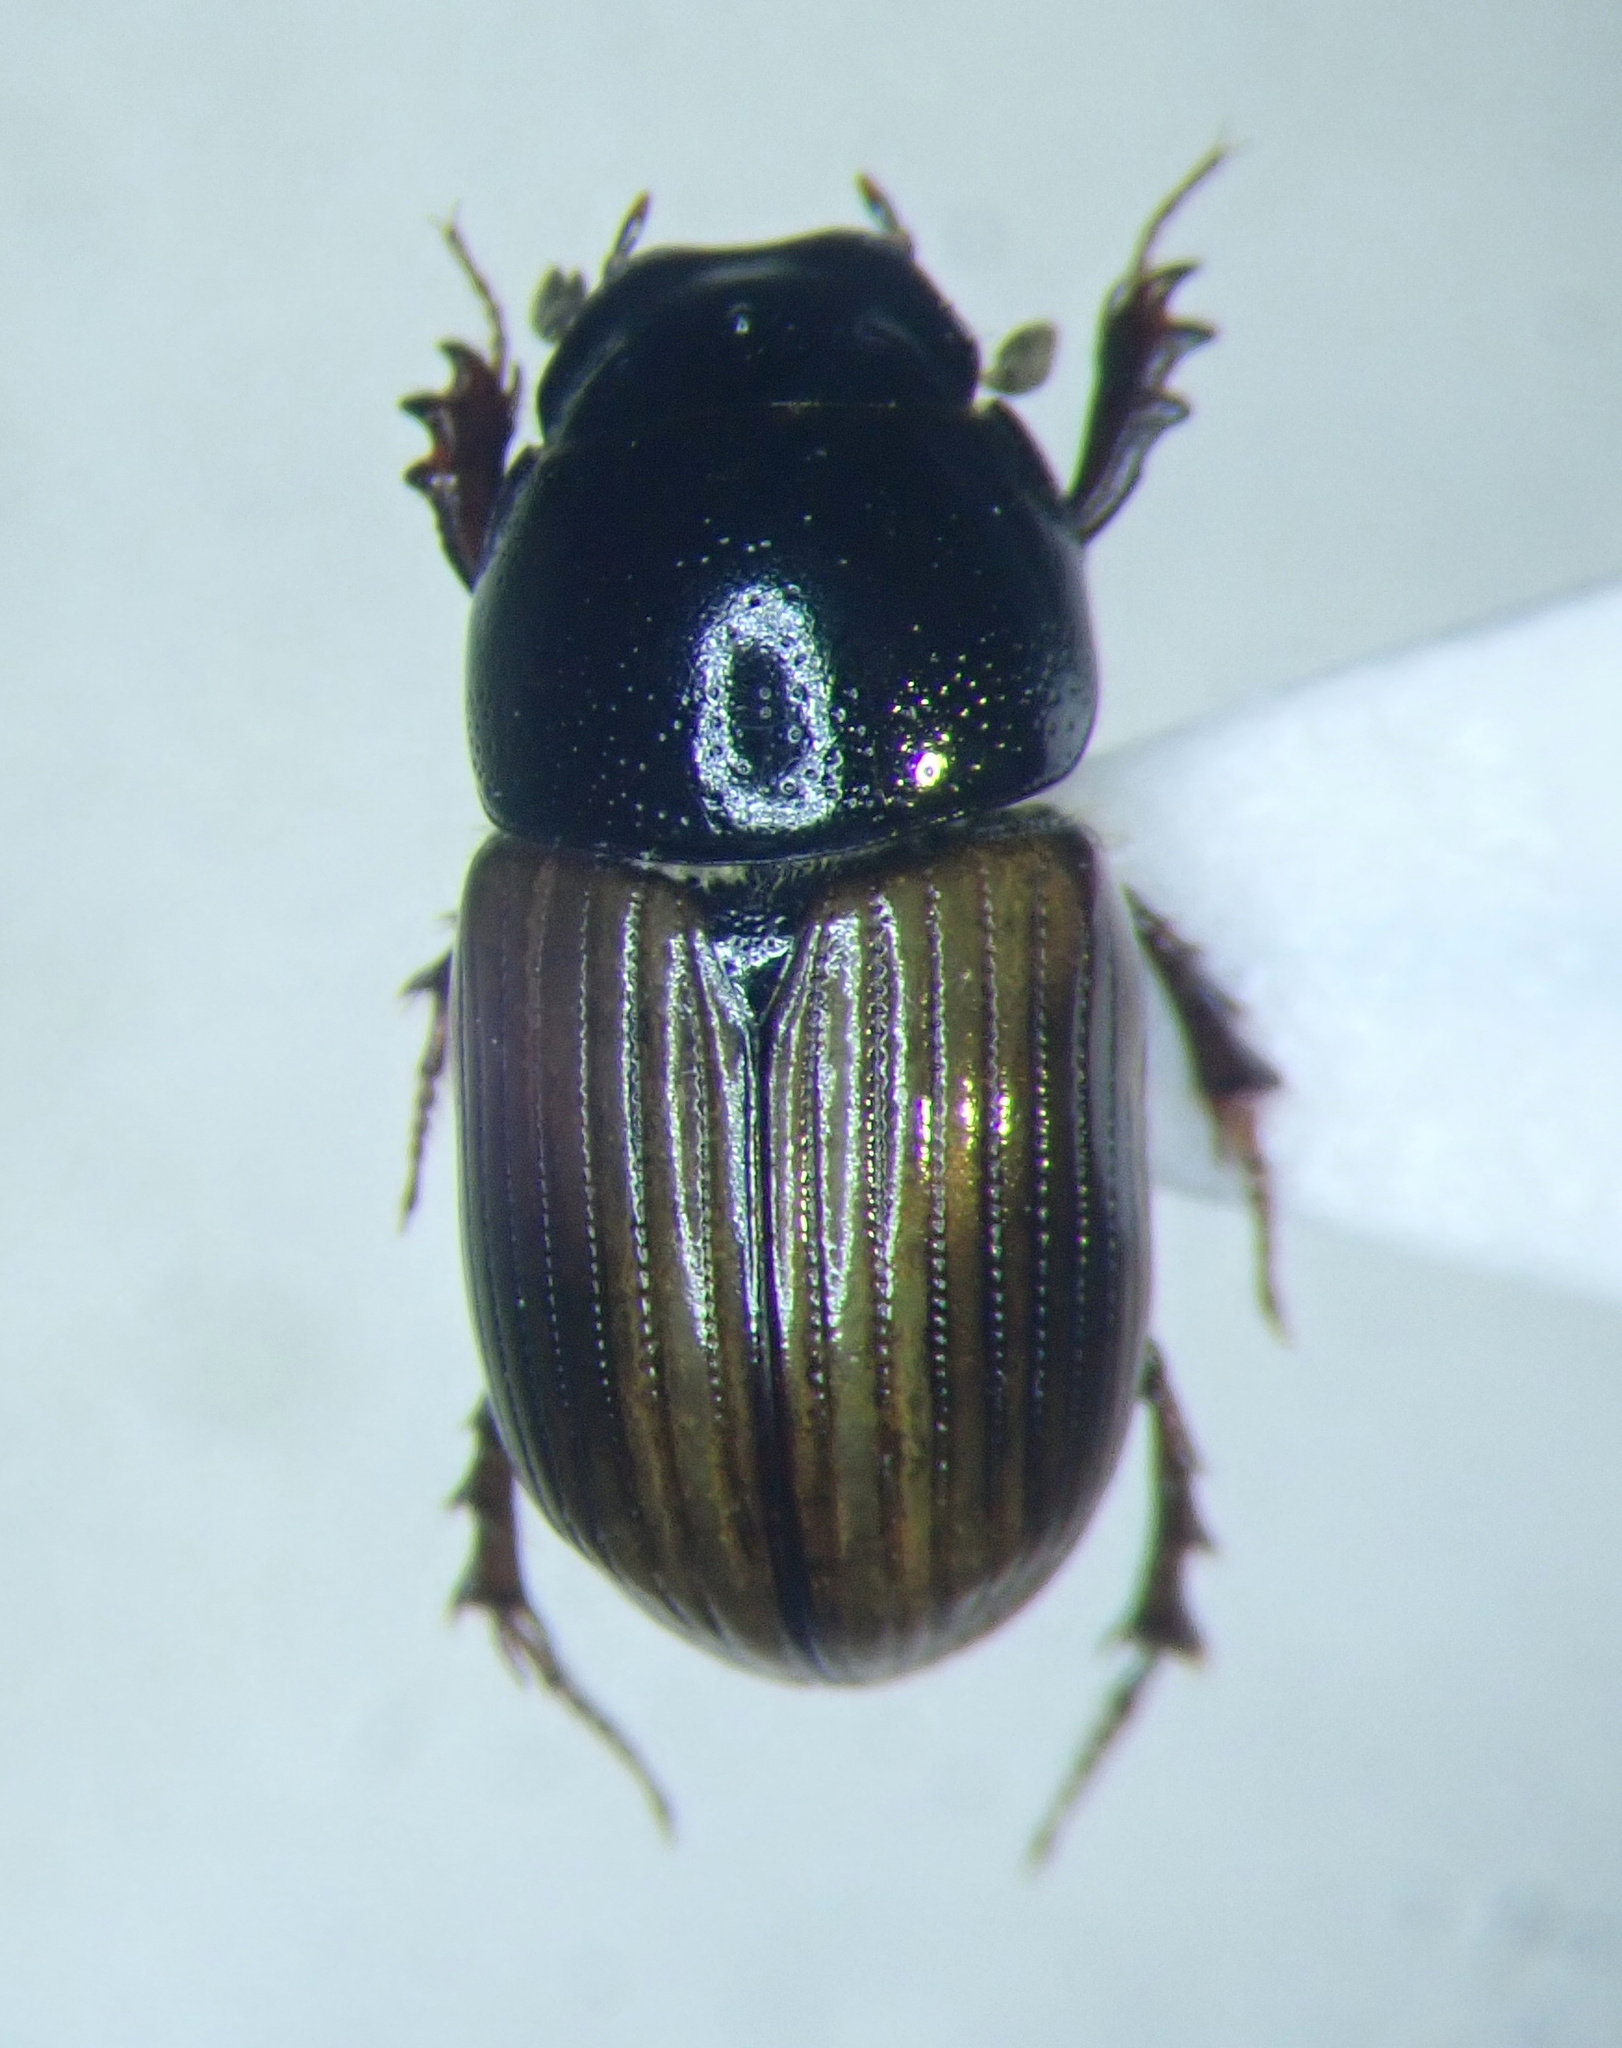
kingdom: Animalia
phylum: Arthropoda
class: Insecta
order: Coleoptera
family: Scarabaeidae
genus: Aphodius
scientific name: Aphodius foetidus
